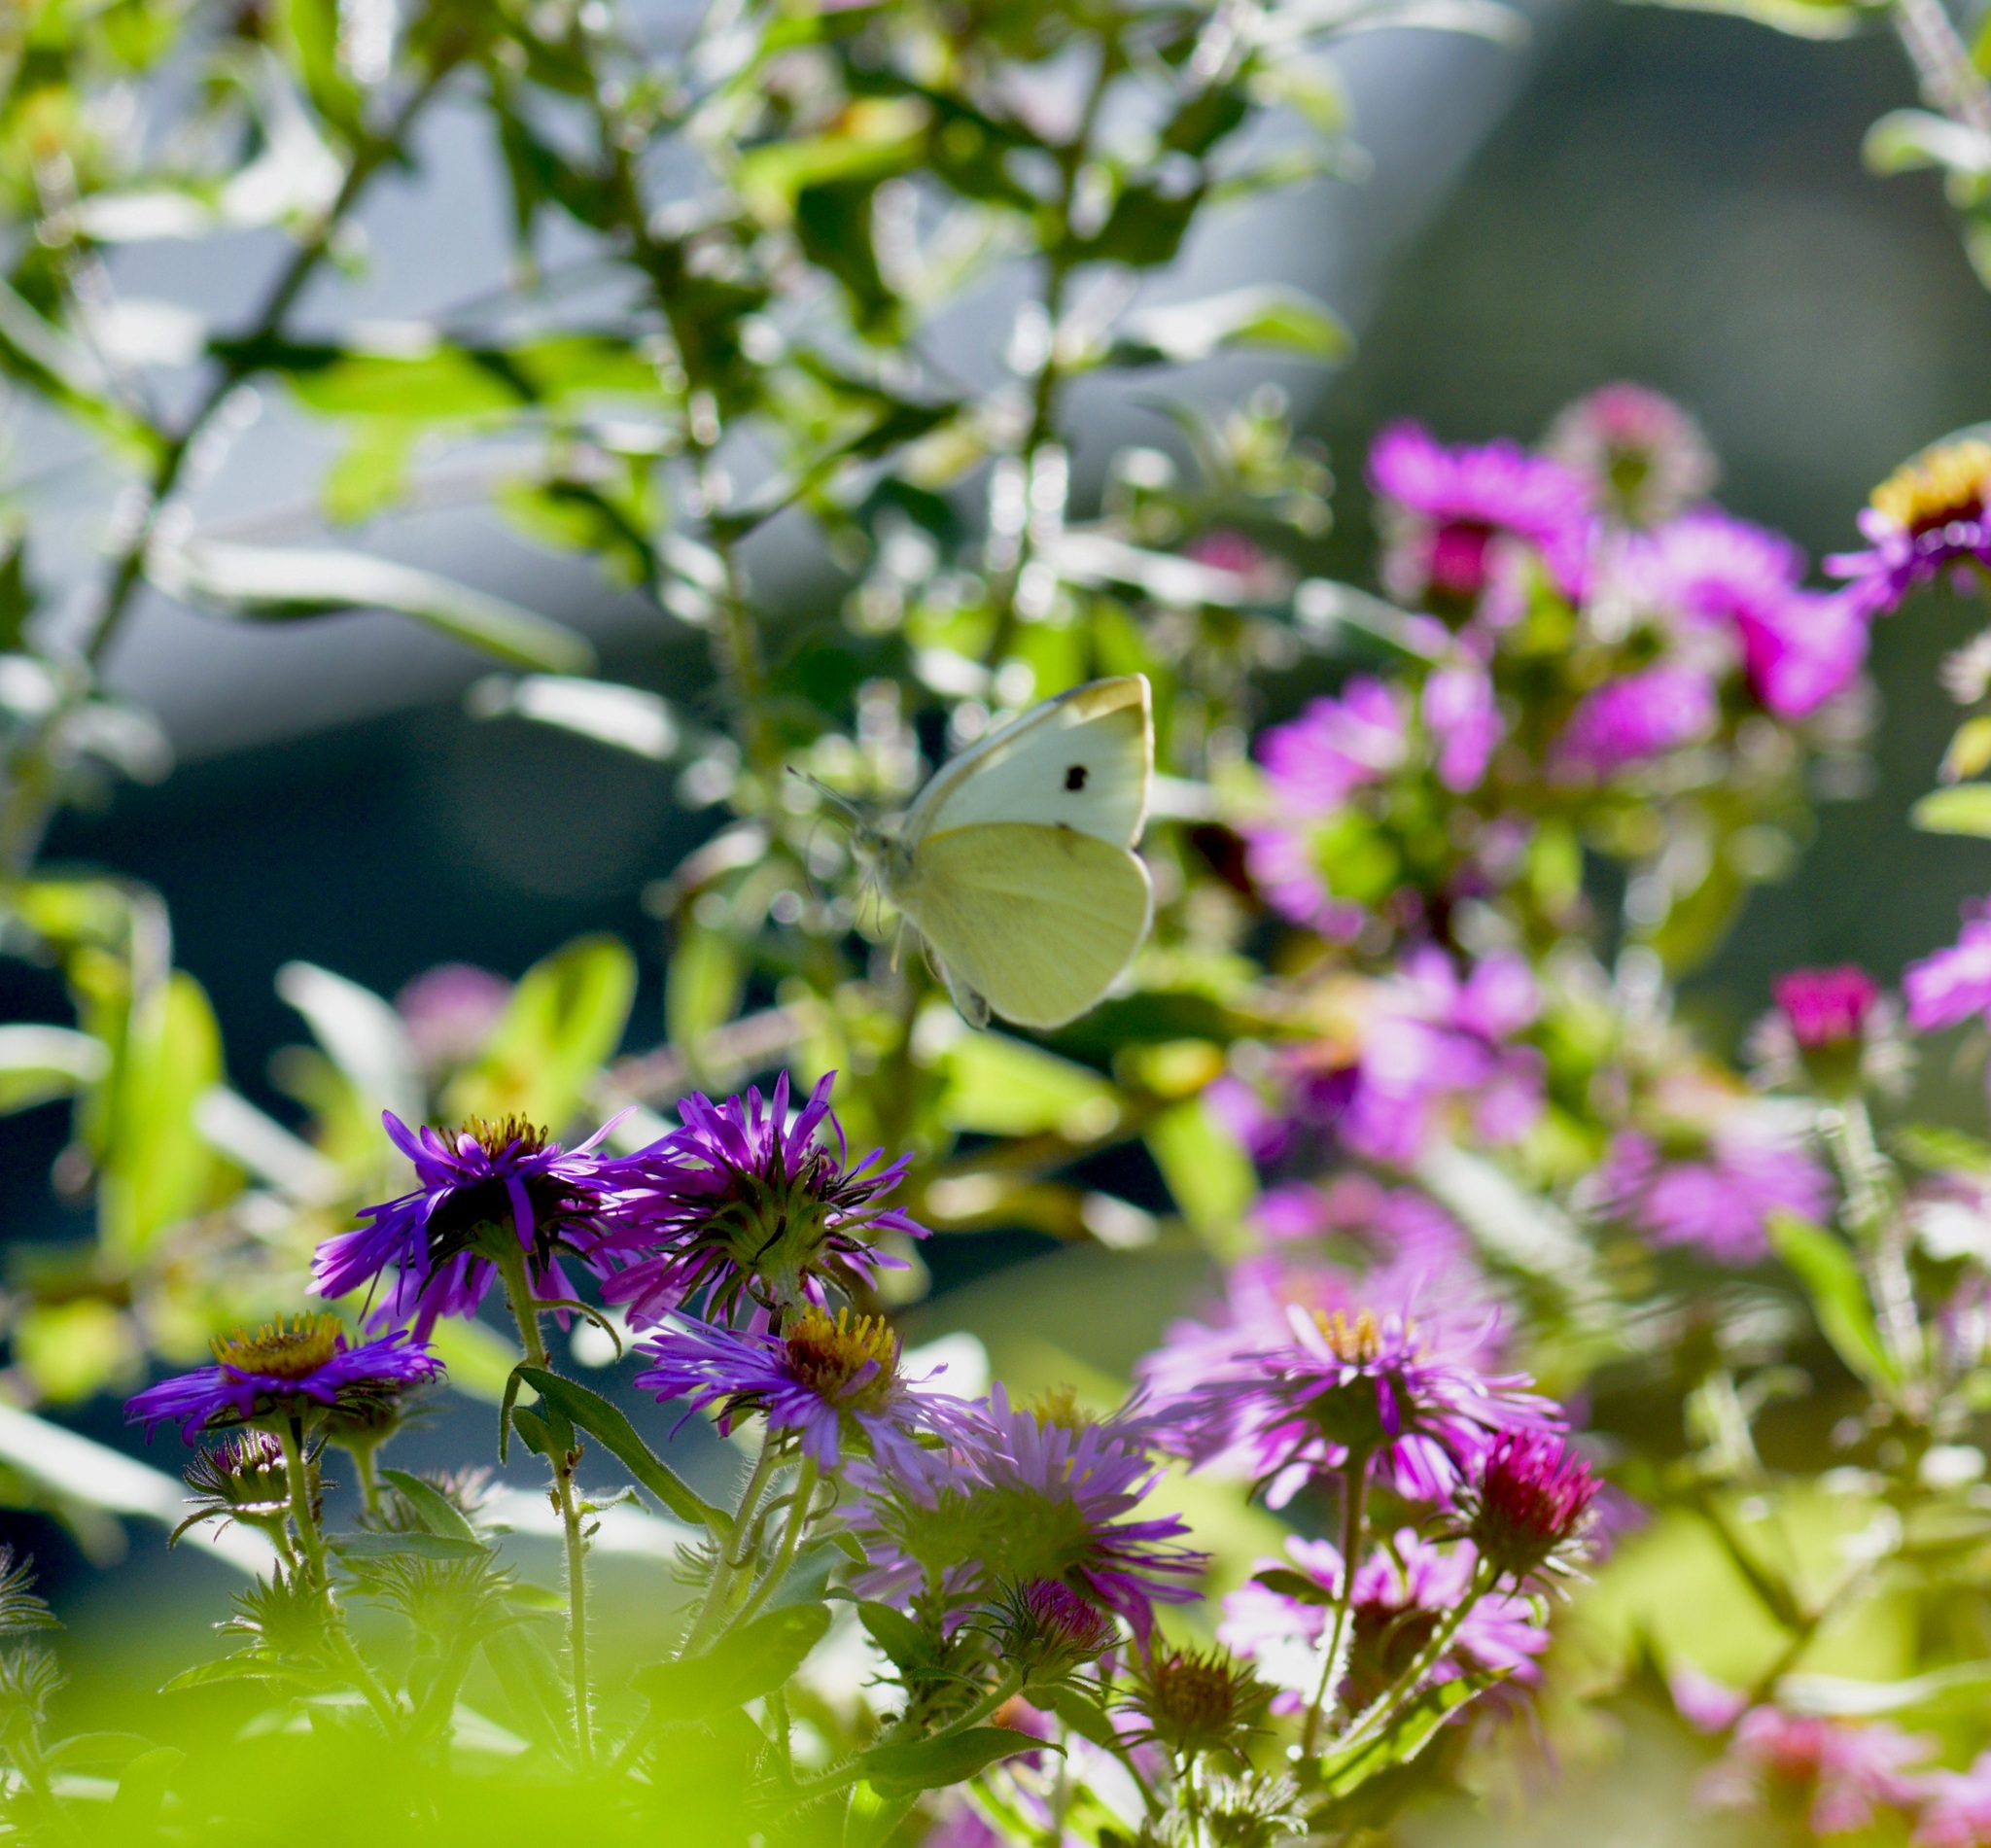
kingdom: Animalia
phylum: Arthropoda
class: Insecta
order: Lepidoptera
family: Pieridae
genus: Pieris
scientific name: Pieris rapae
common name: Small white
